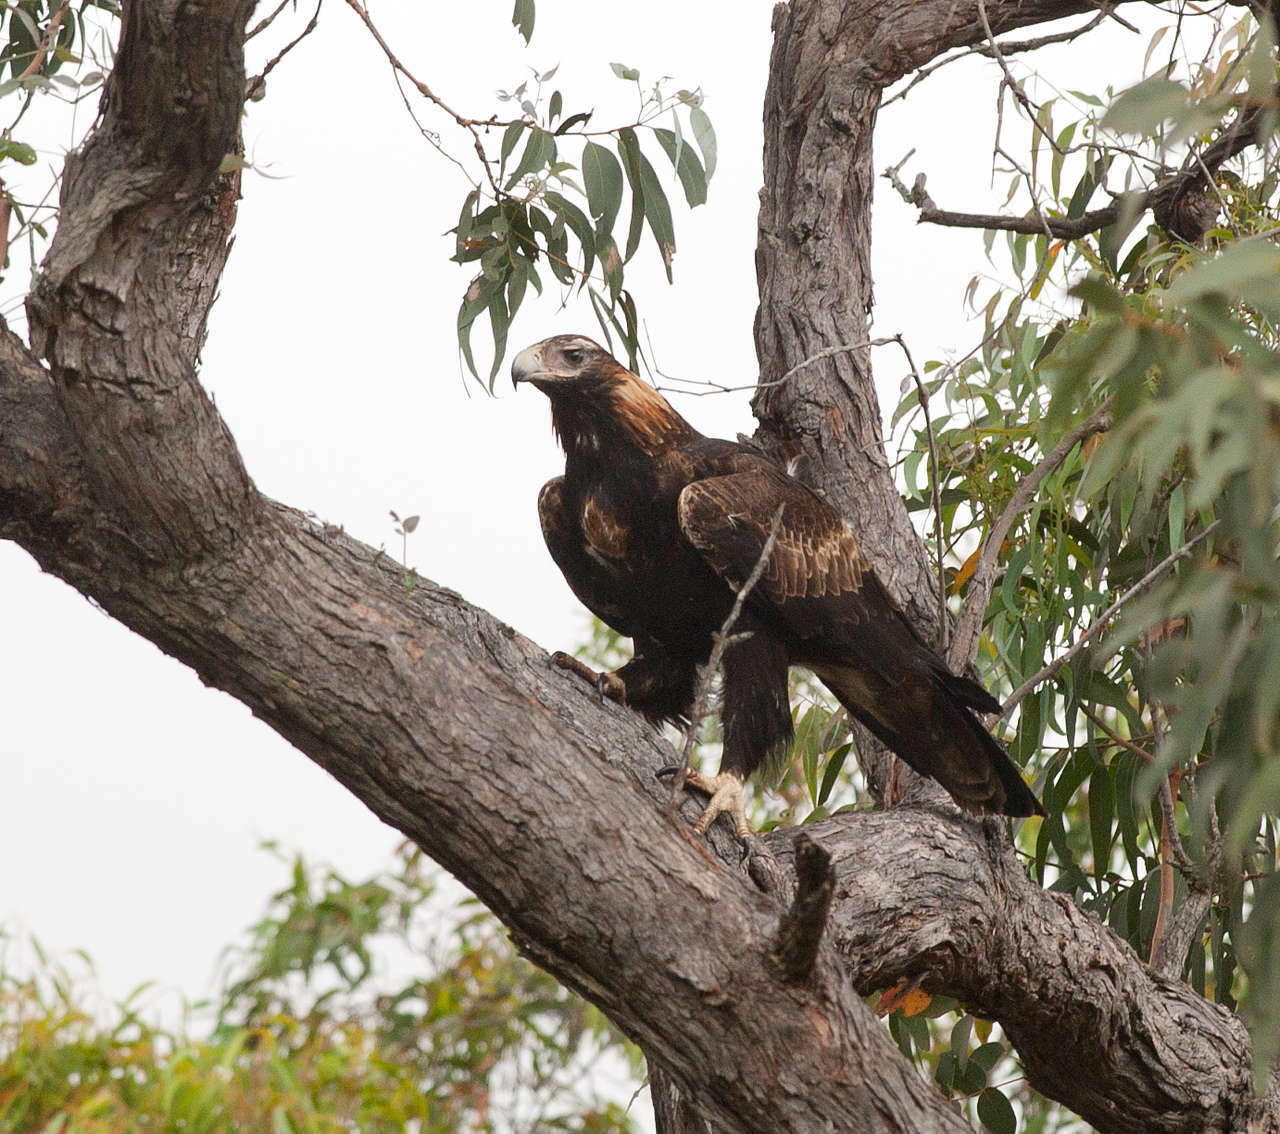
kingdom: Animalia
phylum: Chordata
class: Aves
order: Accipitriformes
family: Accipitridae
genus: Aquila
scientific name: Aquila audax
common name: Wedge-tailed eagle
